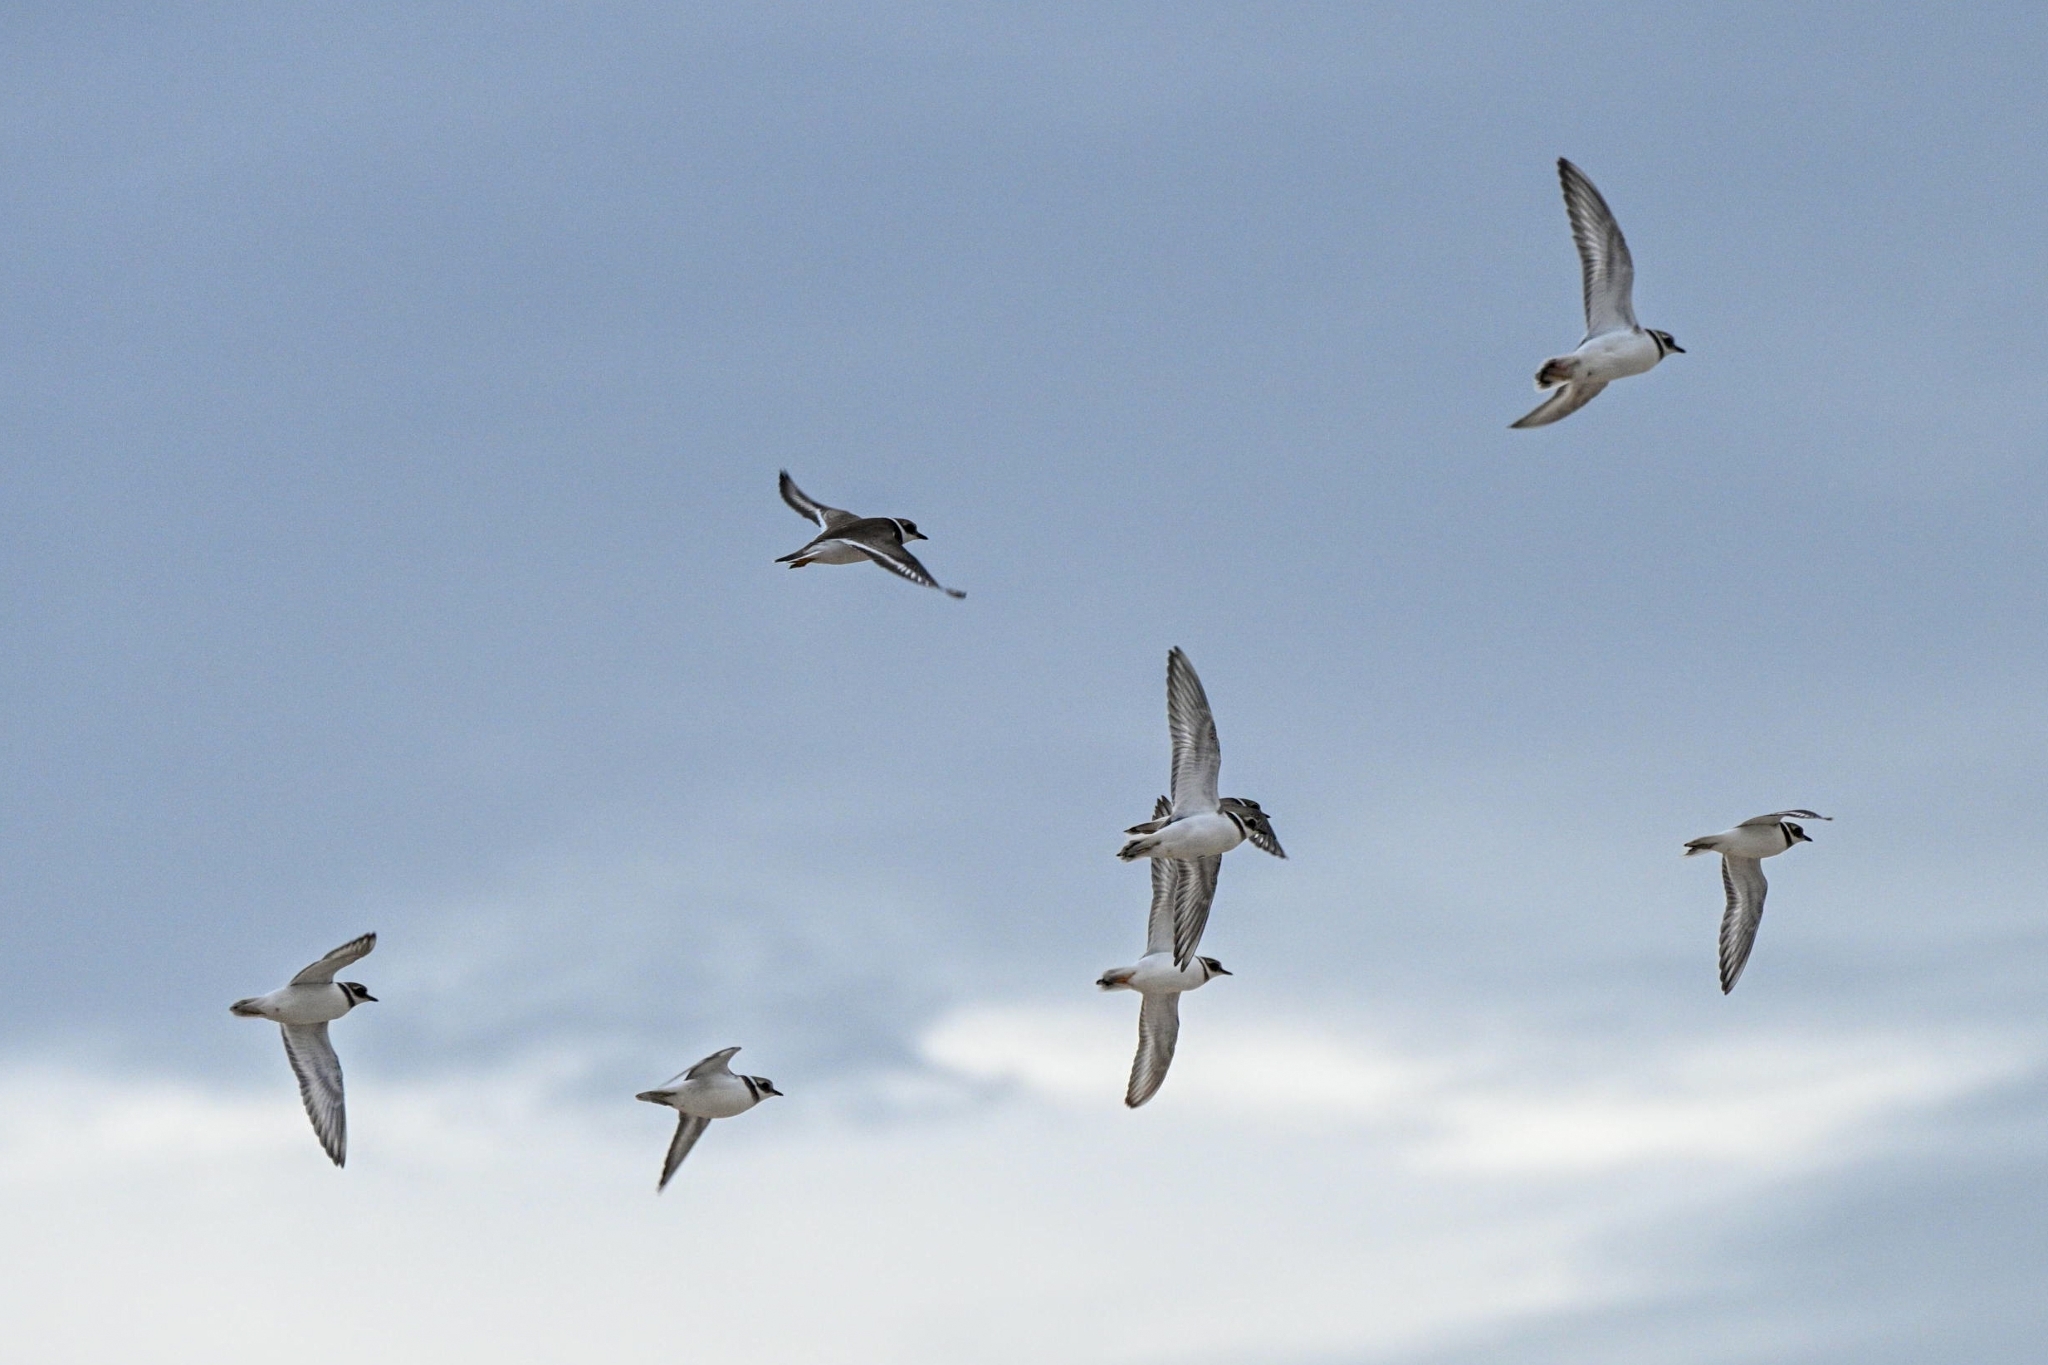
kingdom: Animalia
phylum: Chordata
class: Aves
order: Charadriiformes
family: Charadriidae
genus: Charadrius
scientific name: Charadrius hiaticula
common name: Common ringed plover
